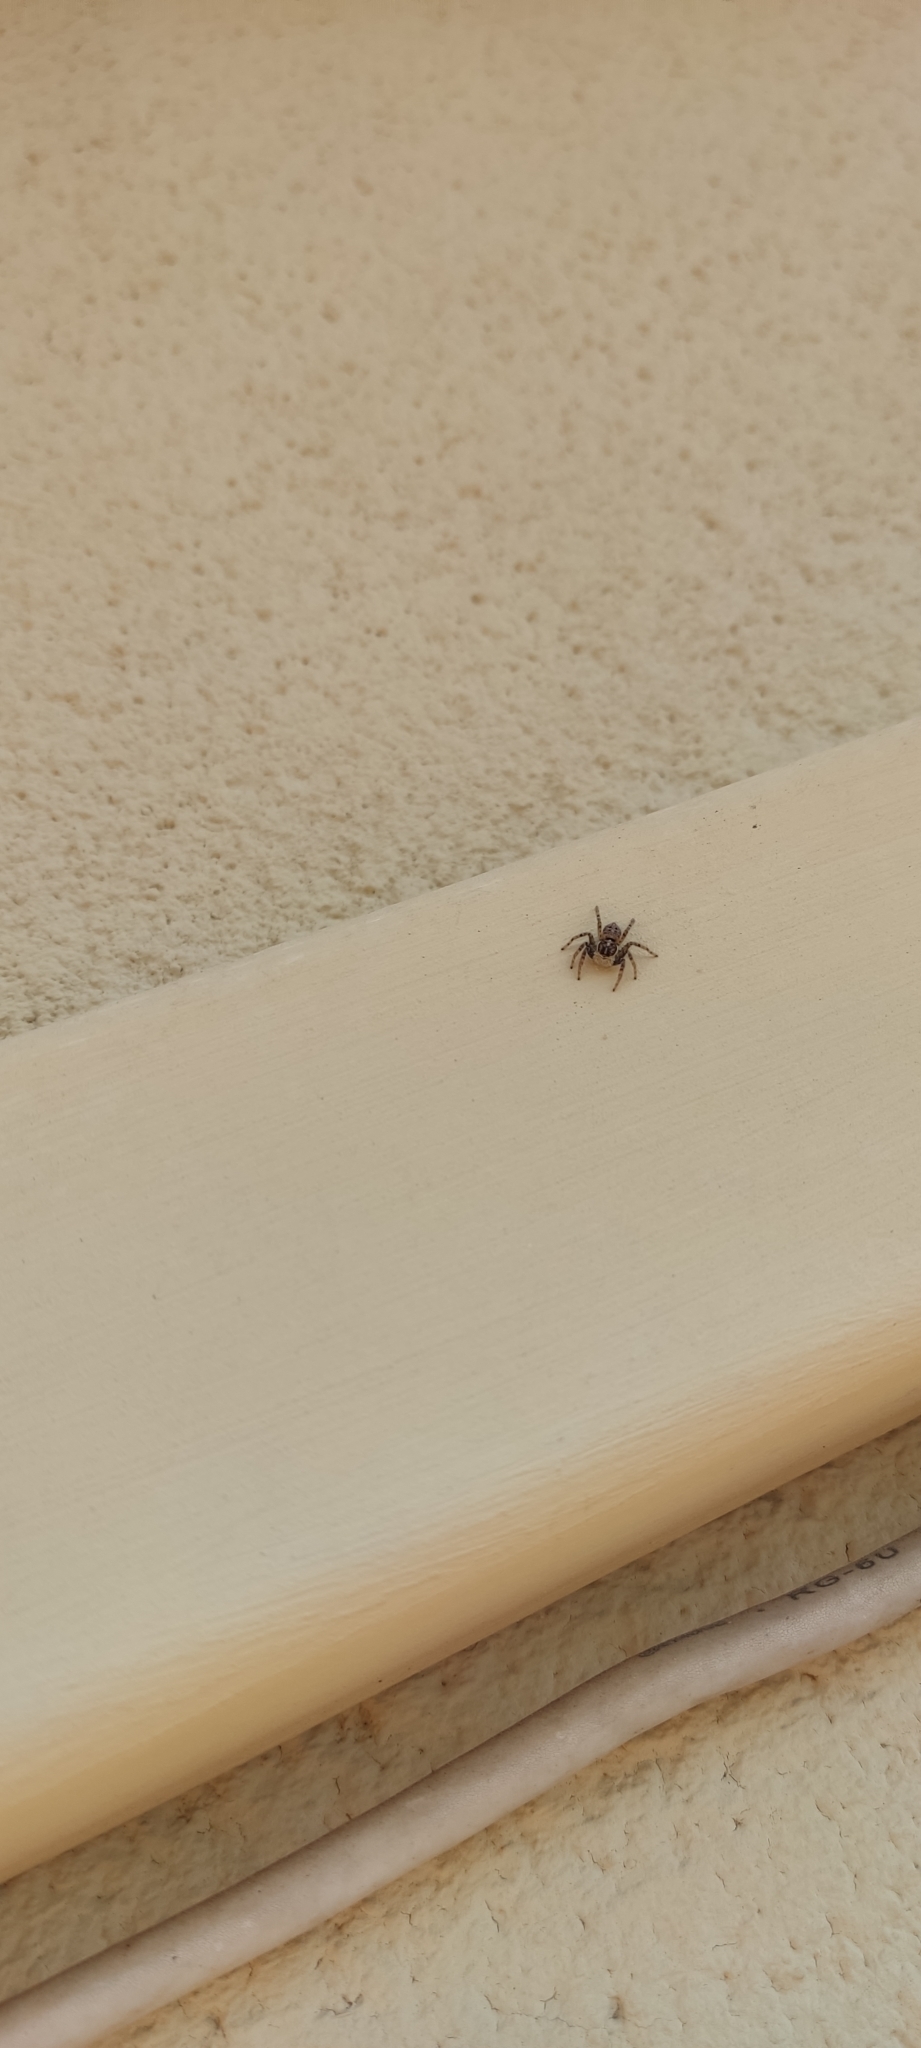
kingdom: Animalia
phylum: Arthropoda
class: Arachnida
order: Araneae
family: Salticidae
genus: Menemerus
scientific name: Menemerus semilimbatus
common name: Jumping spider
